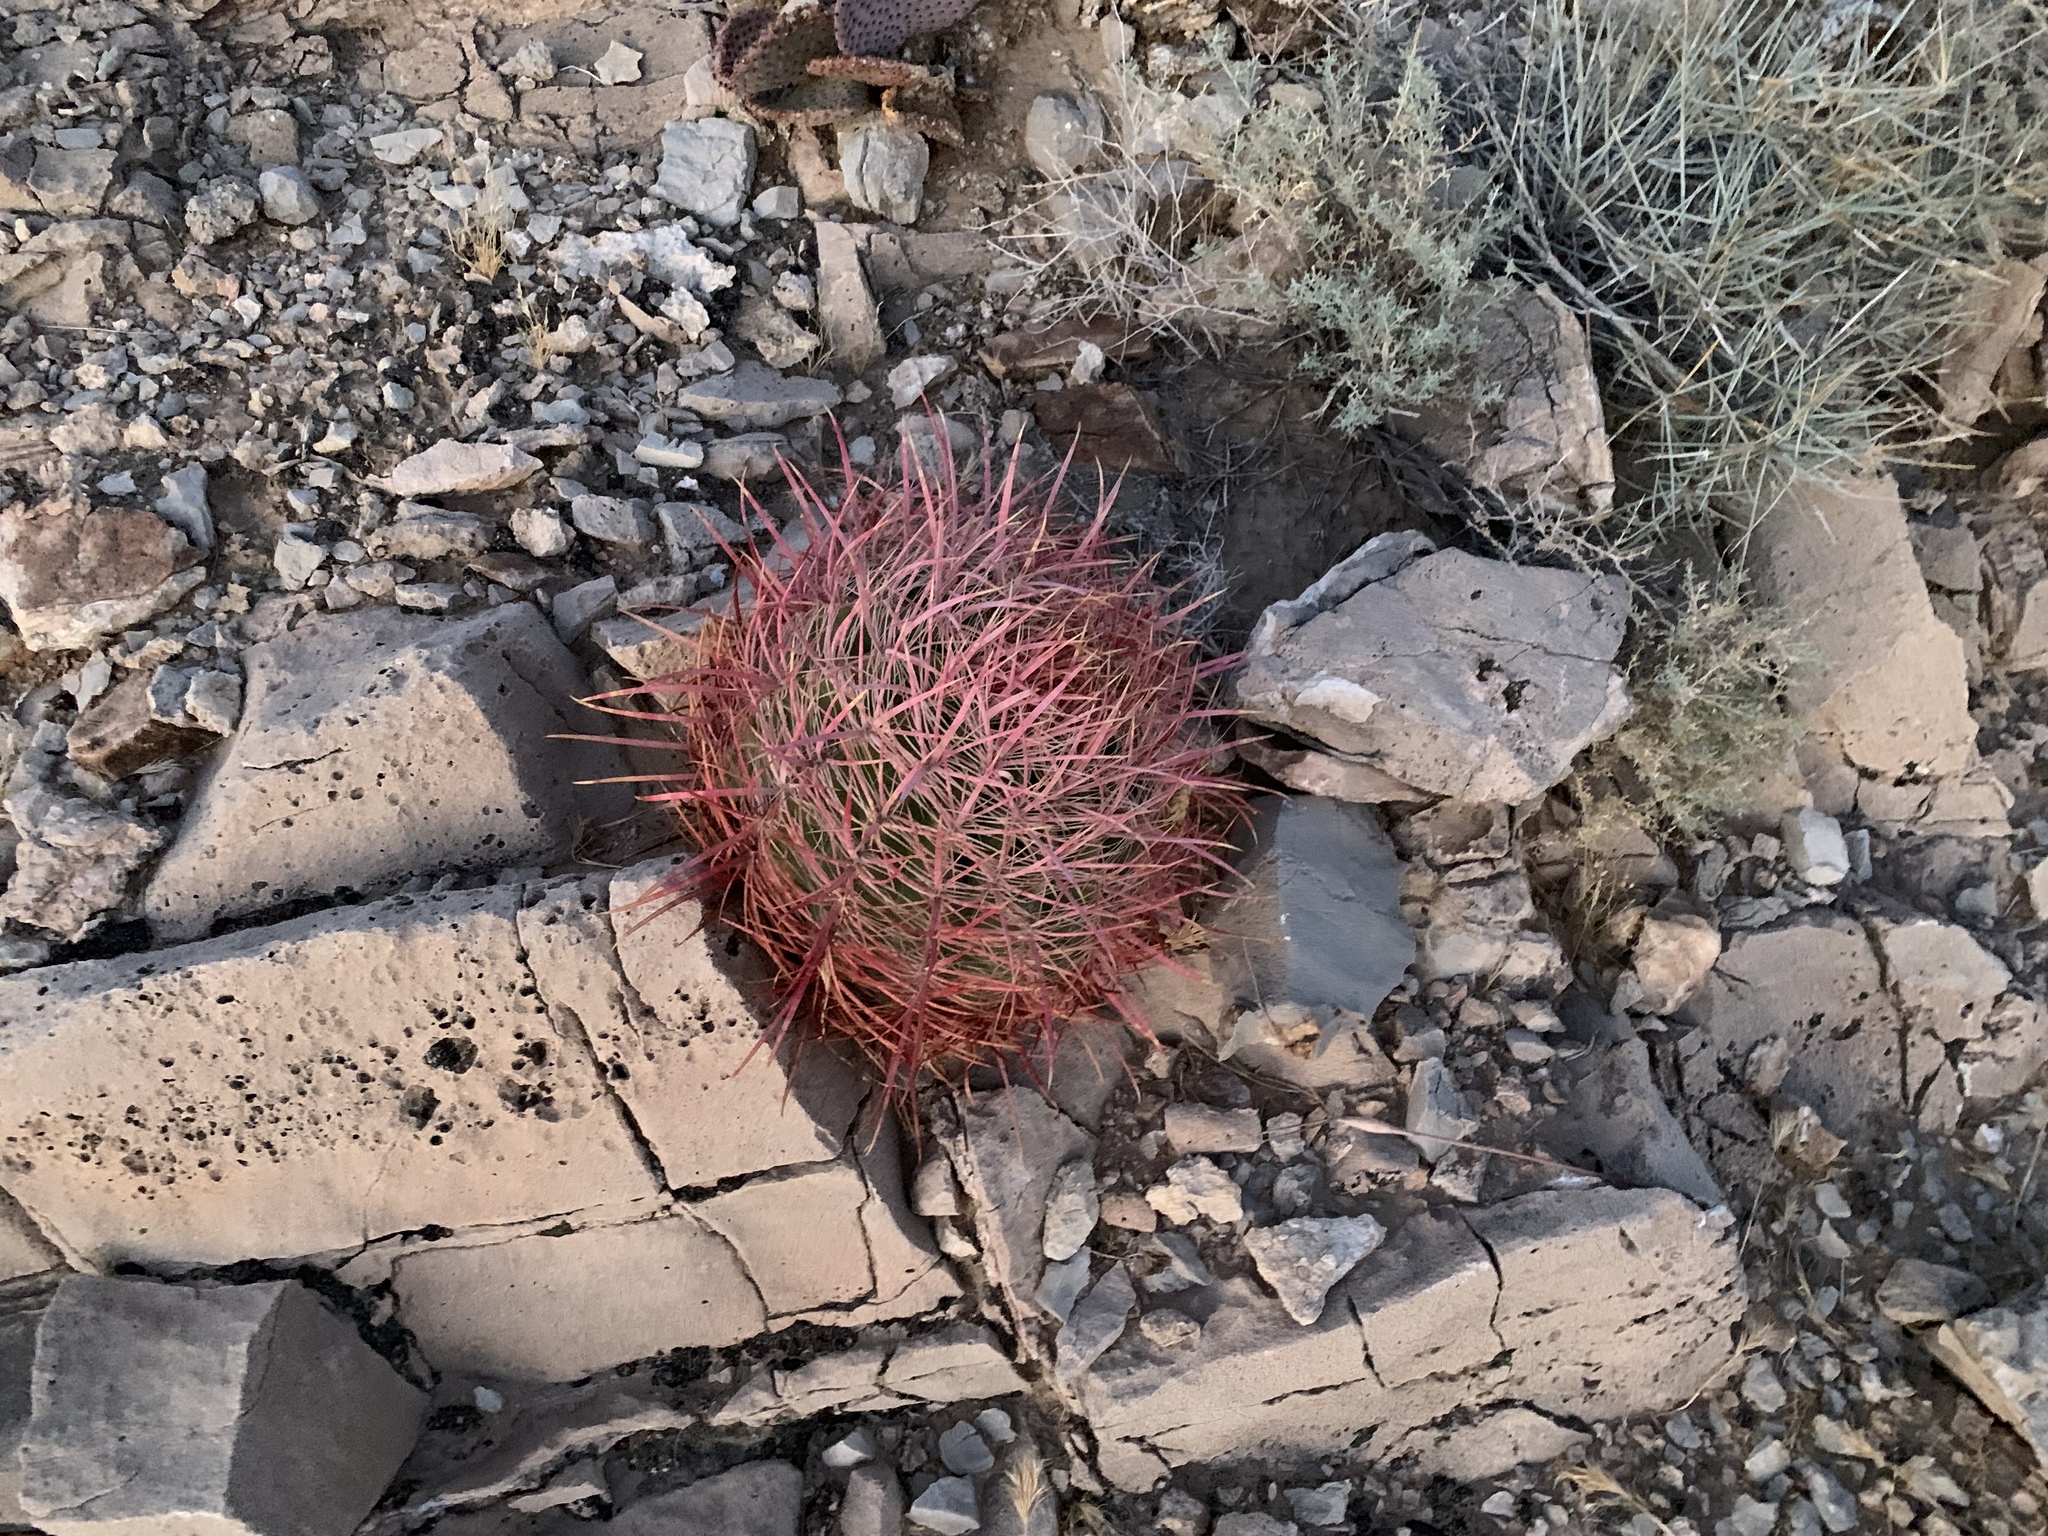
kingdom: Plantae
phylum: Tracheophyta
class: Magnoliopsida
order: Caryophyllales
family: Cactaceae
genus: Ferocactus
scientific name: Ferocactus cylindraceus
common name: California barrel cactus
